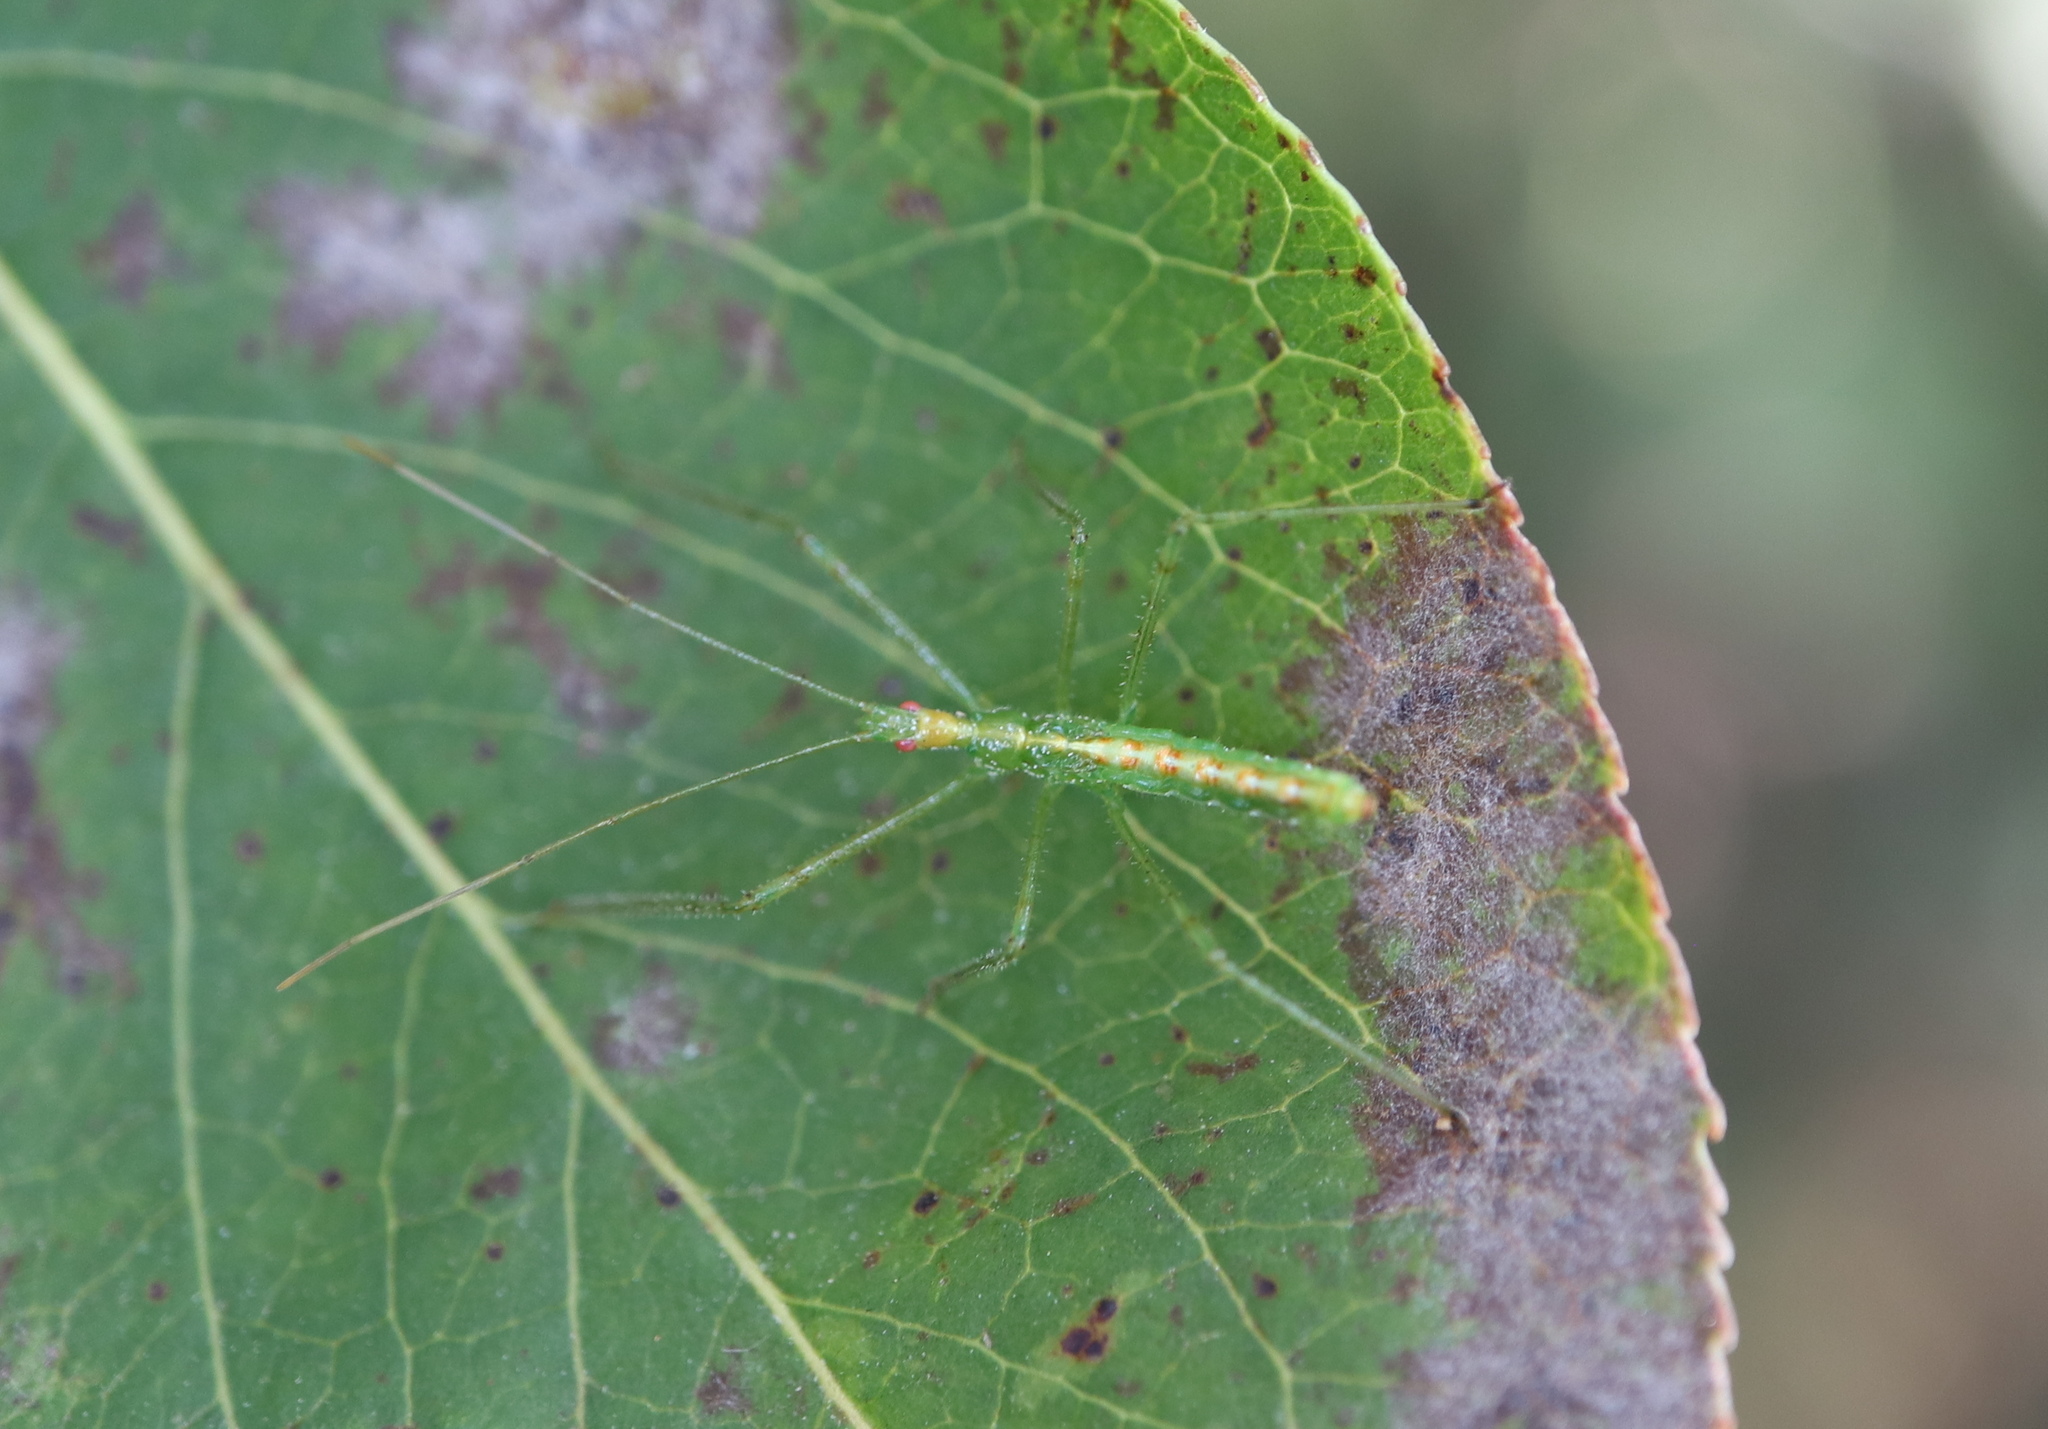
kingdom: Animalia
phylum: Arthropoda
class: Insecta
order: Hemiptera
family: Reduviidae
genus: Zelus
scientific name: Zelus luridus
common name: Pale green assassin bug
